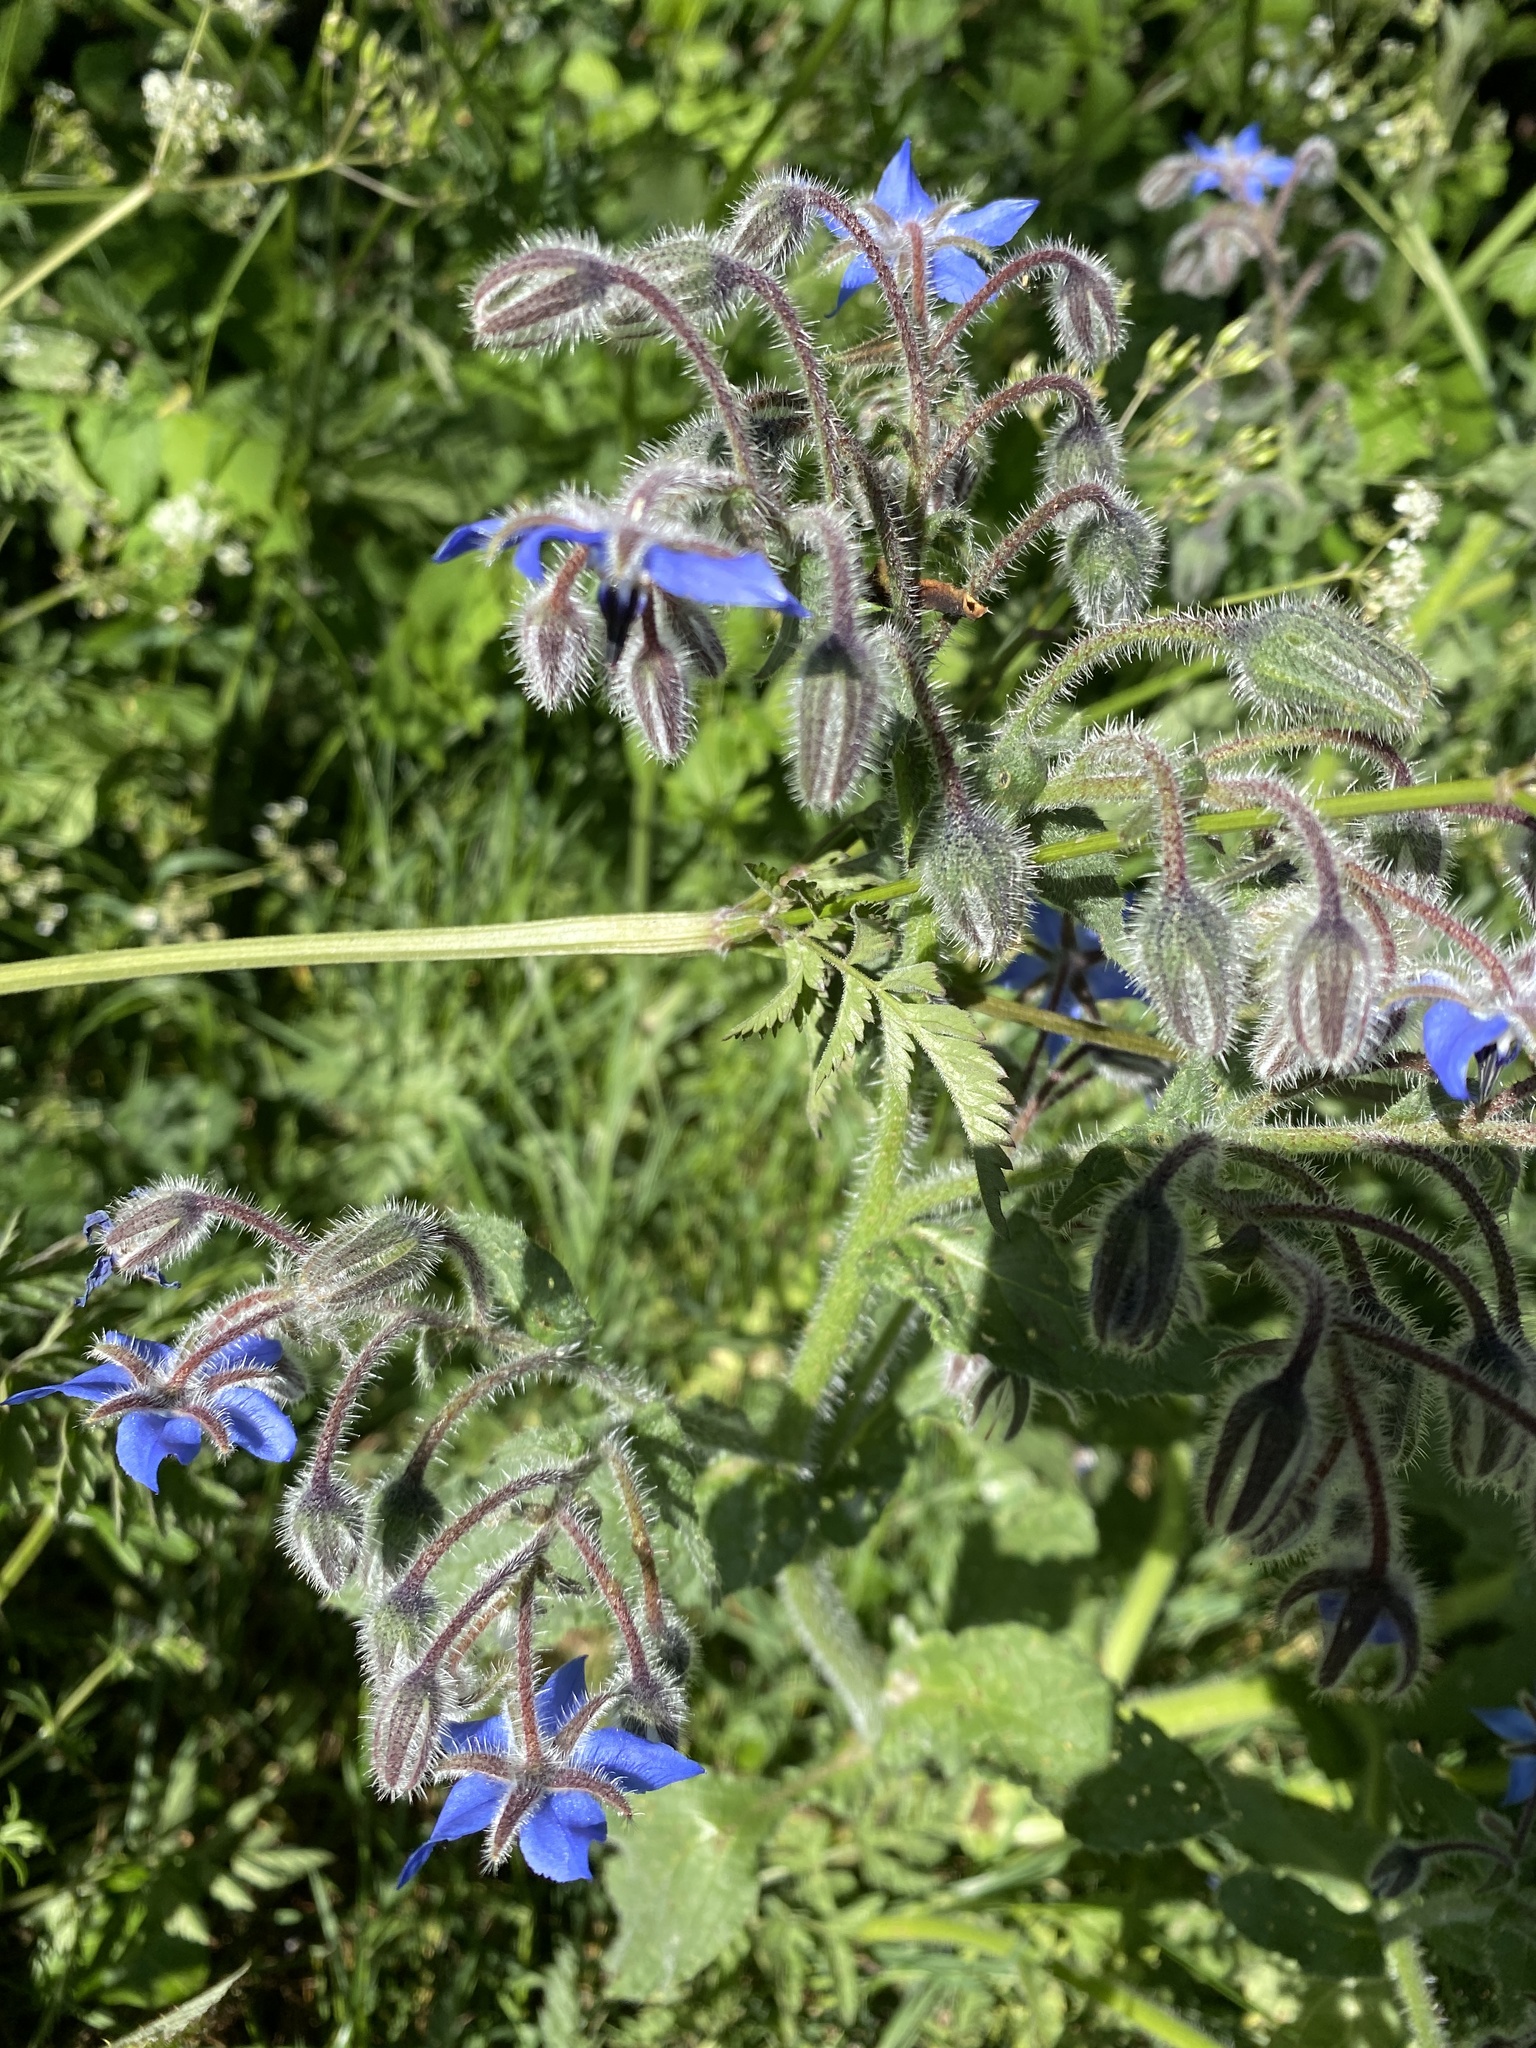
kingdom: Plantae
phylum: Tracheophyta
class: Magnoliopsida
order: Boraginales
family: Boraginaceae
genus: Borago
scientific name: Borago officinalis
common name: Borage
